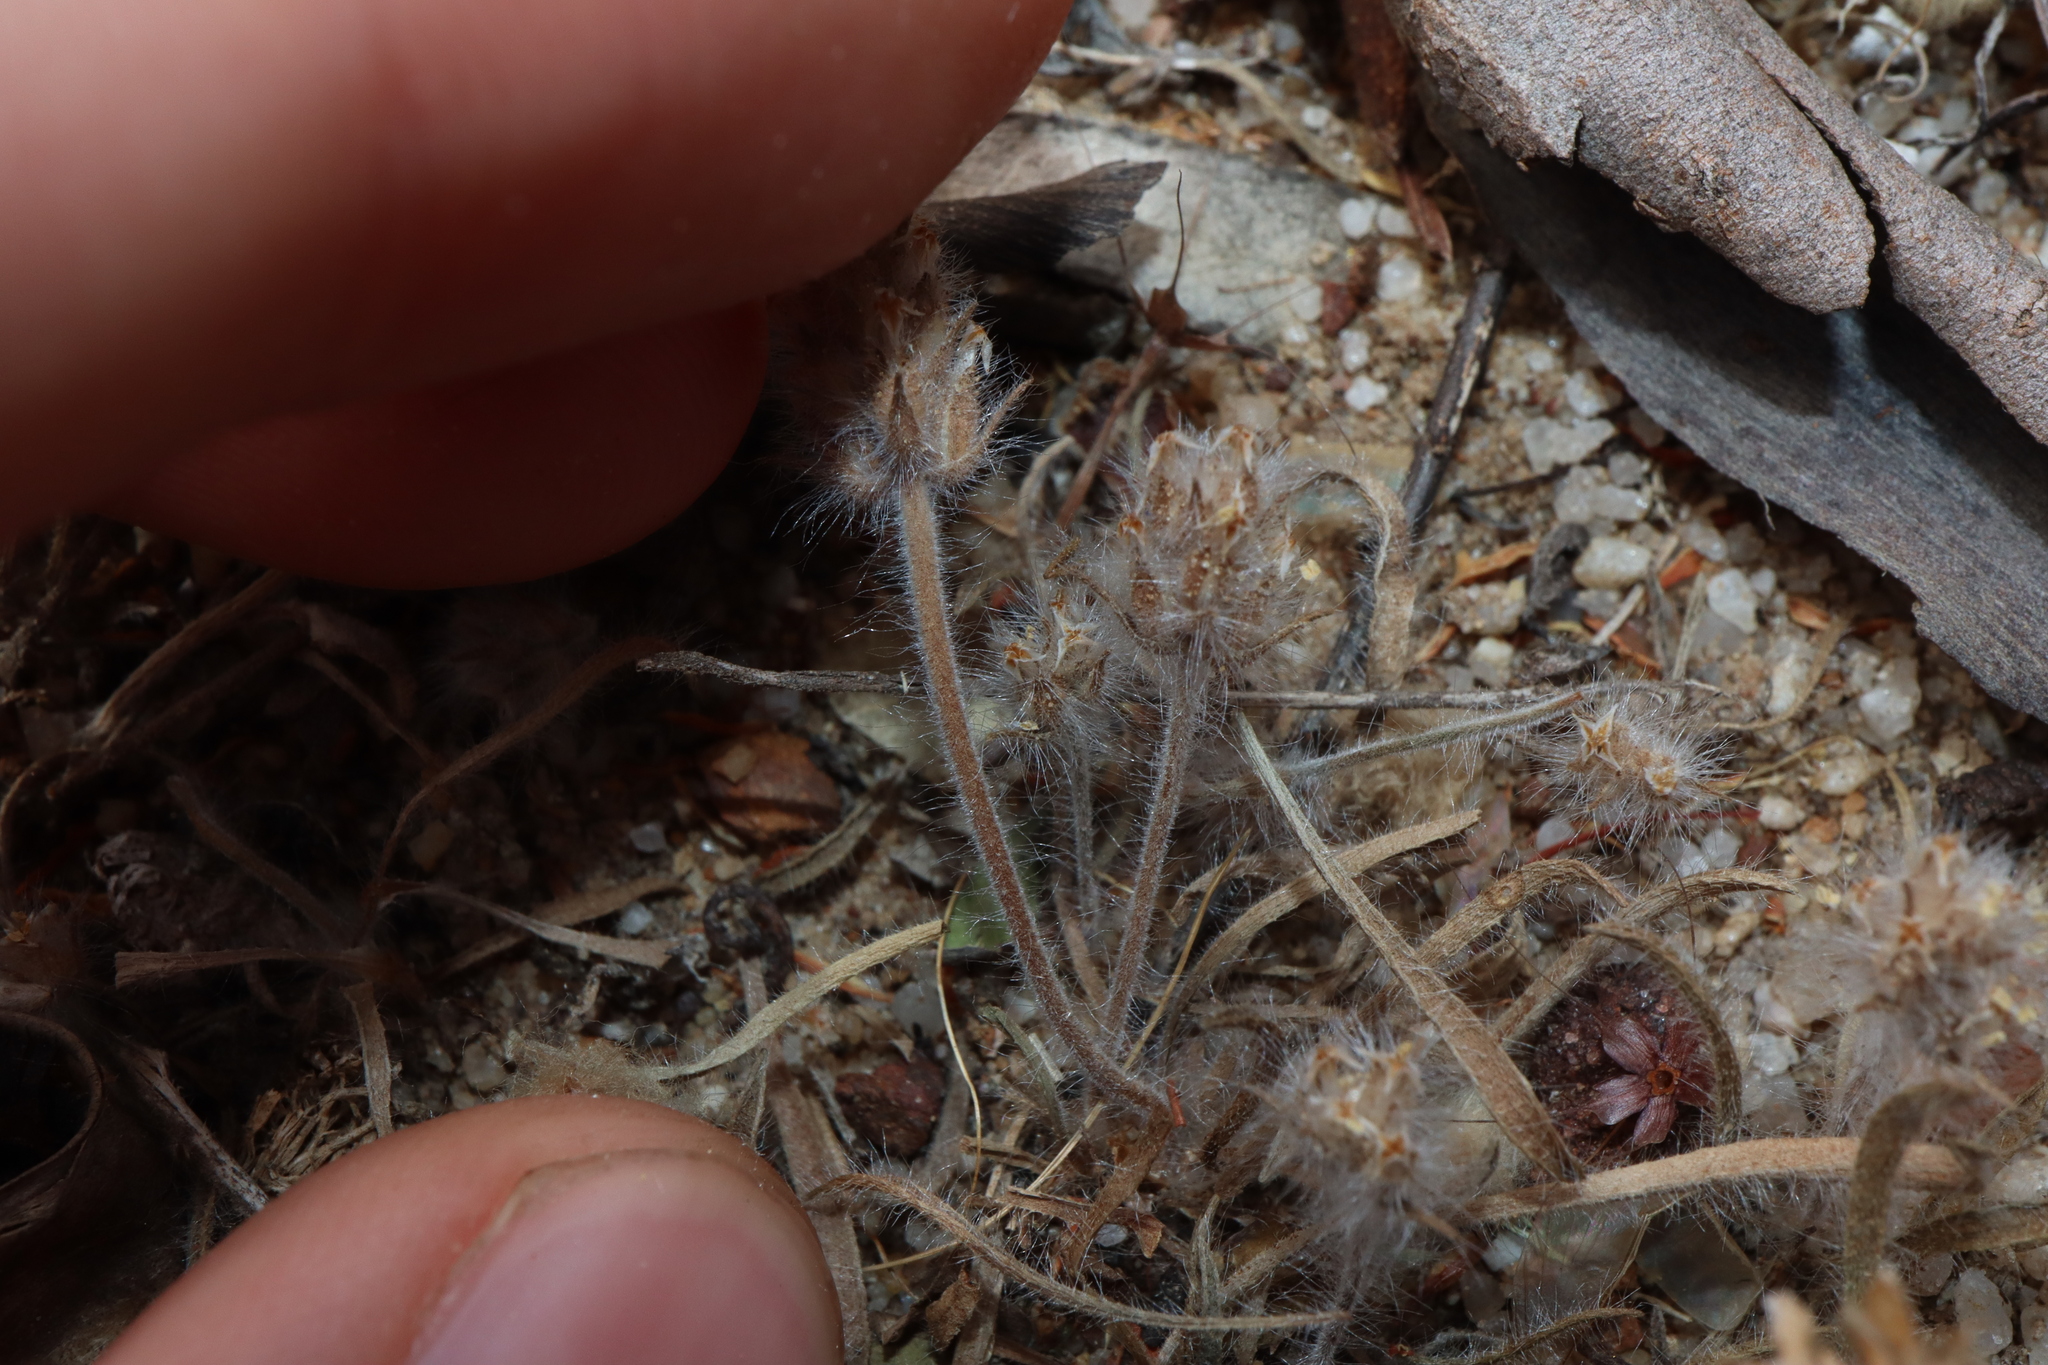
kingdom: Plantae
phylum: Tracheophyta
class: Magnoliopsida
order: Lamiales
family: Plantaginaceae
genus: Plantago
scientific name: Plantago bellardii
